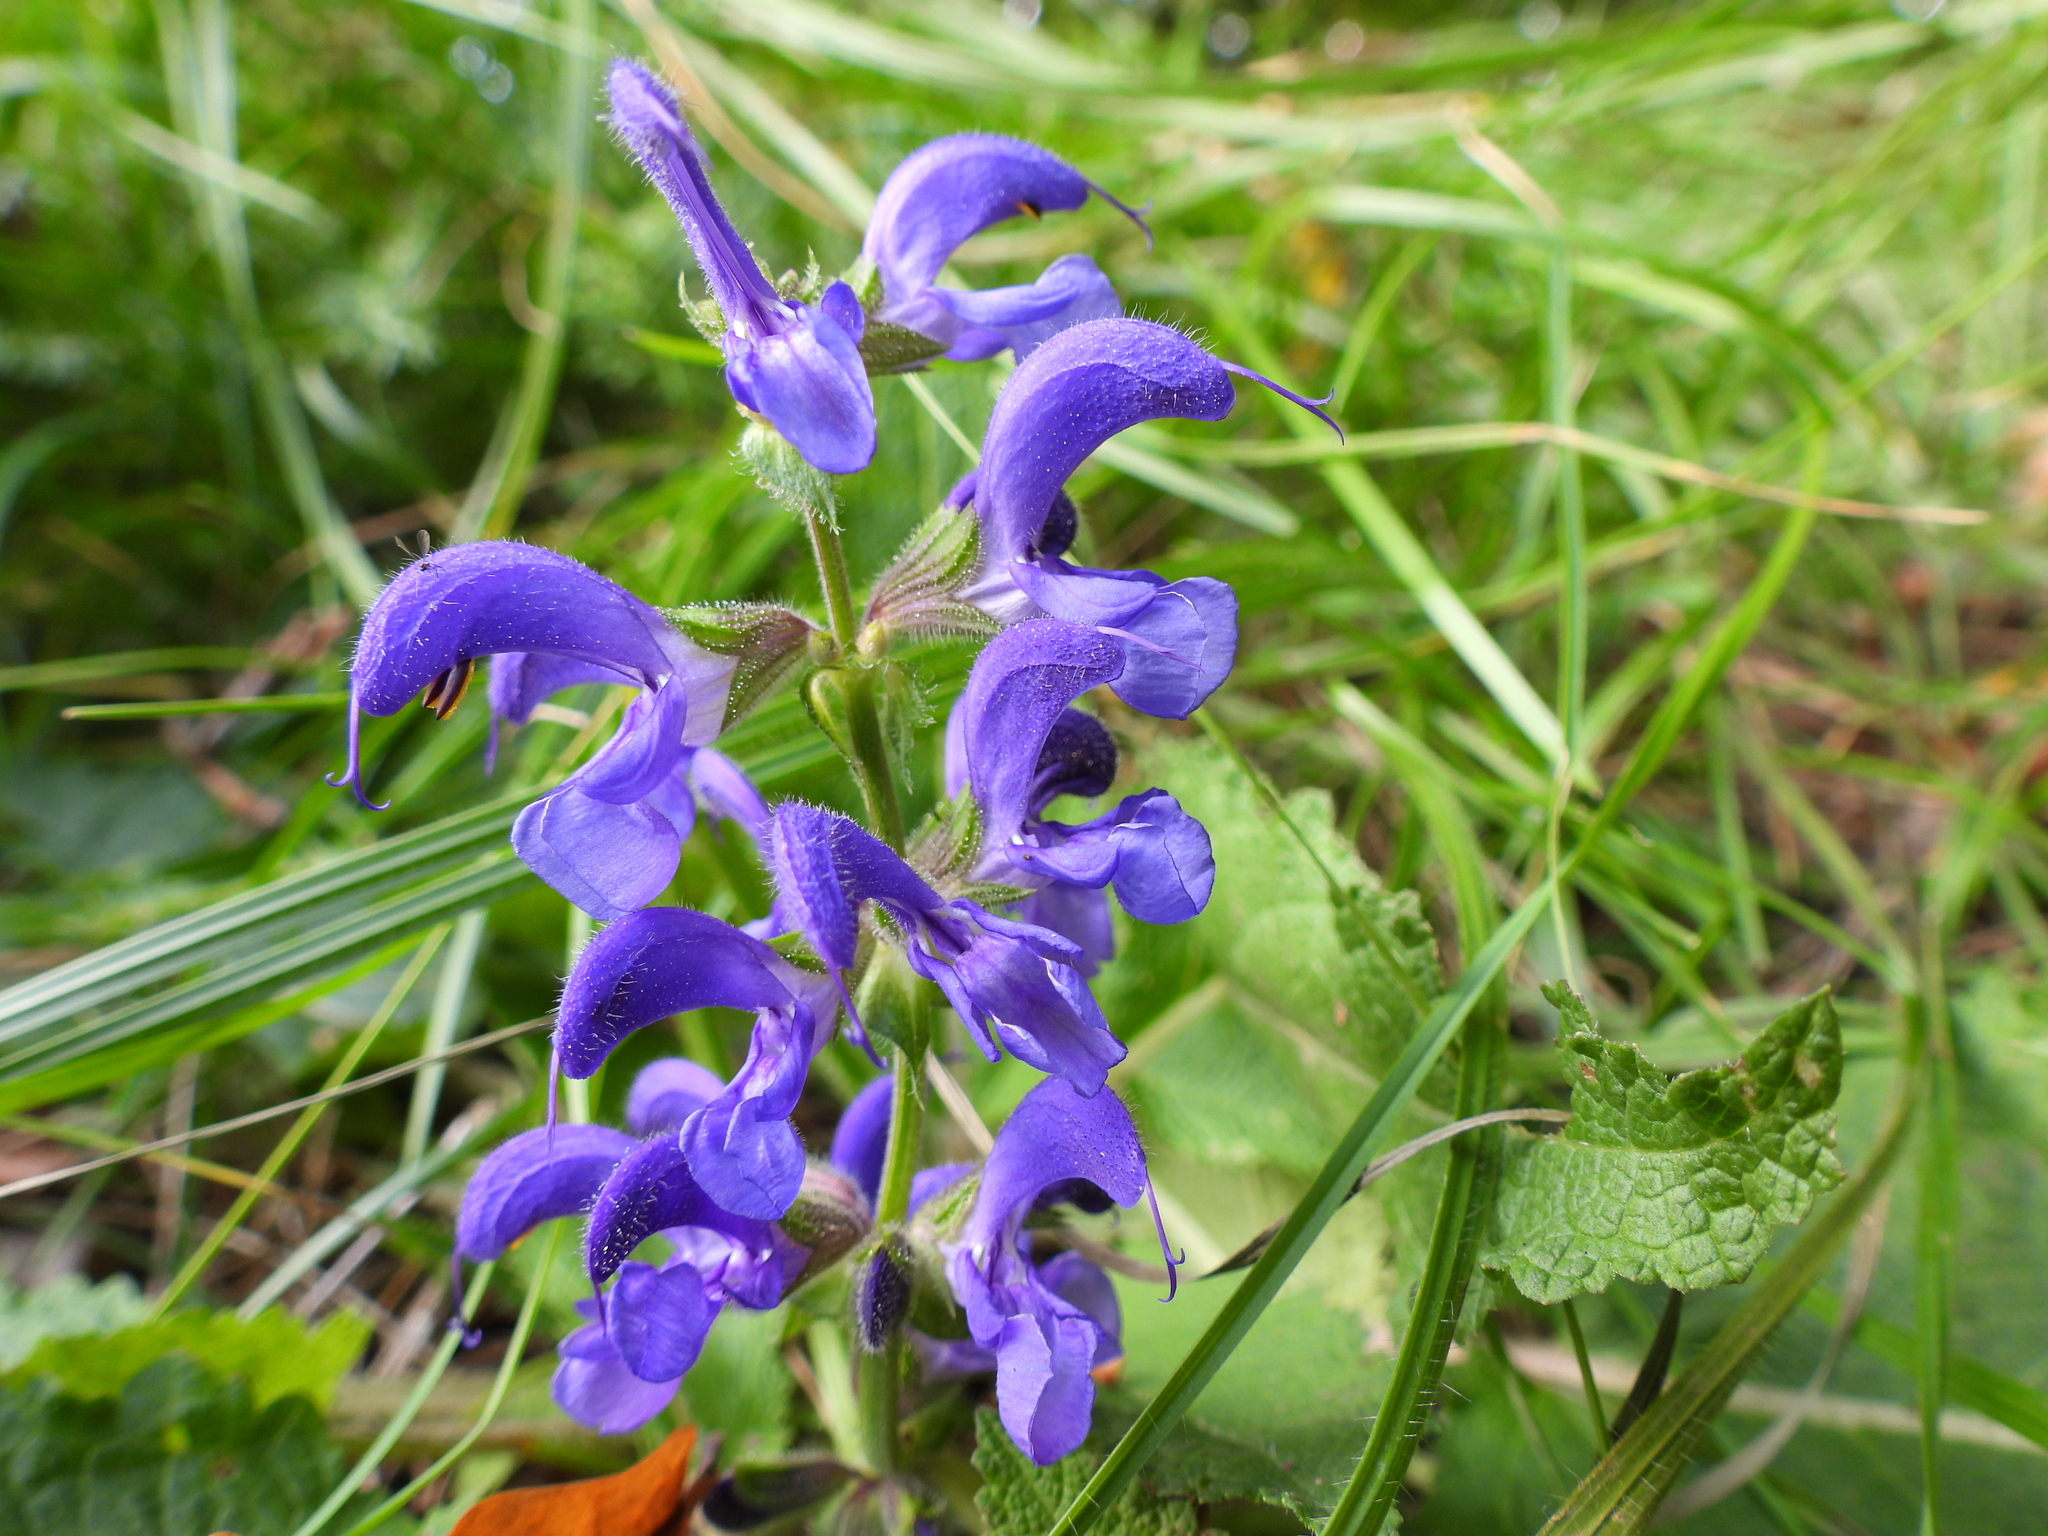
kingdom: Plantae
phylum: Tracheophyta
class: Magnoliopsida
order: Lamiales
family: Lamiaceae
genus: Salvia
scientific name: Salvia pratensis
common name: Meadow sage
